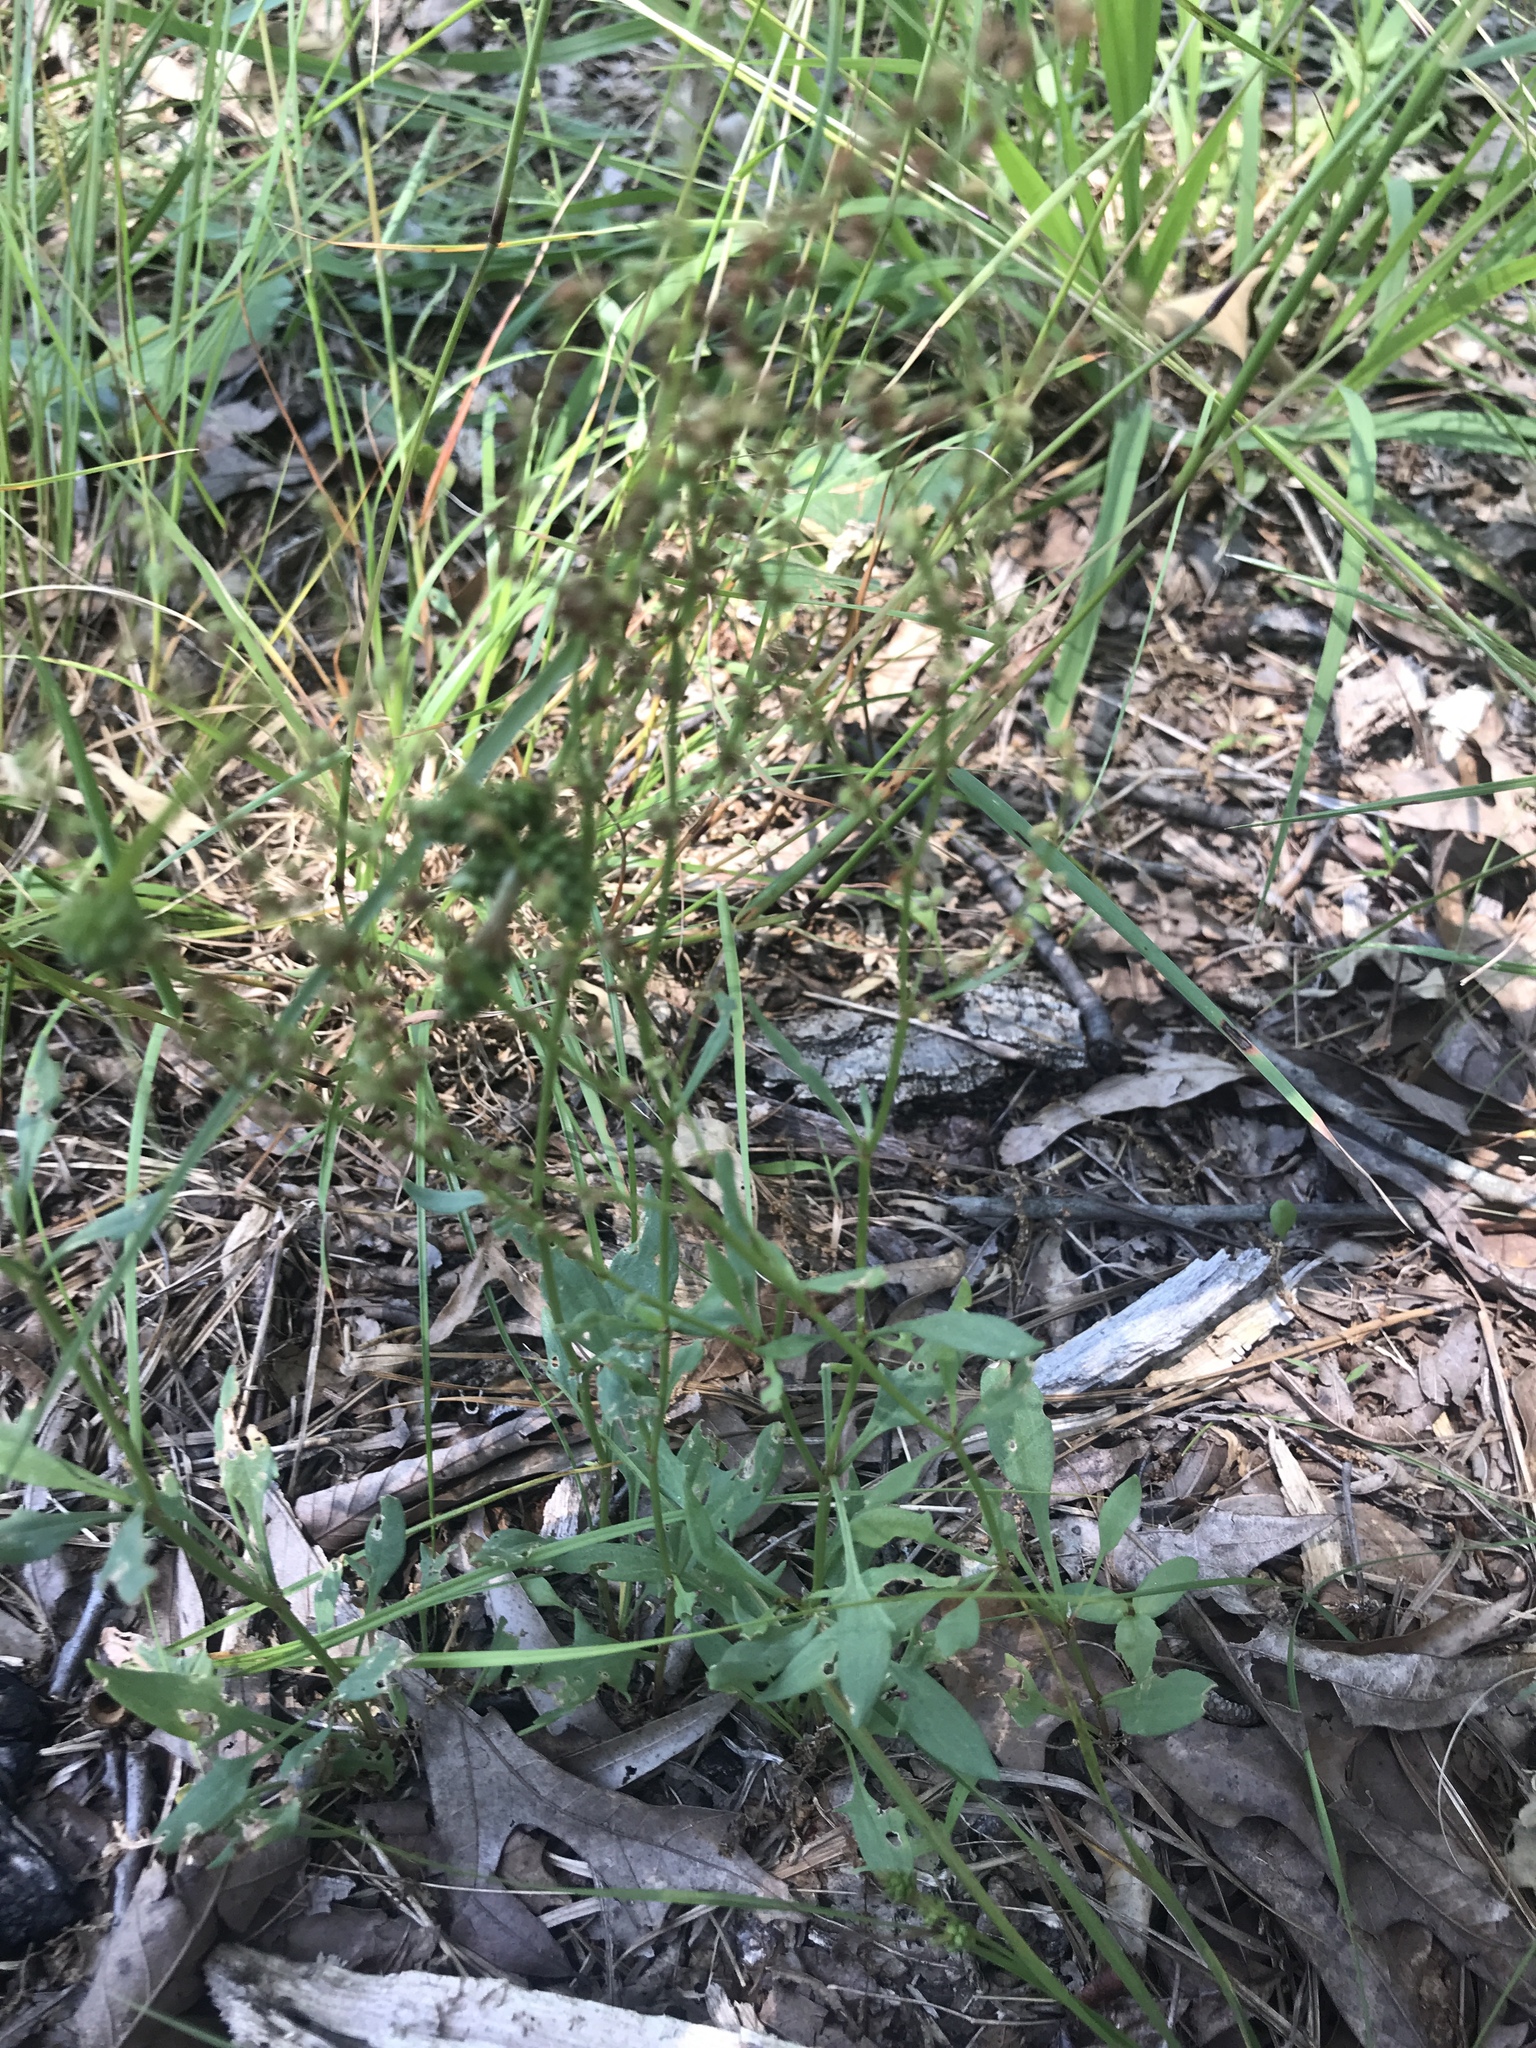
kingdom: Plantae
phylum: Tracheophyta
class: Magnoliopsida
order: Caryophyllales
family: Polygonaceae
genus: Rumex
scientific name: Rumex acetosella
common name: Common sheep sorrel
